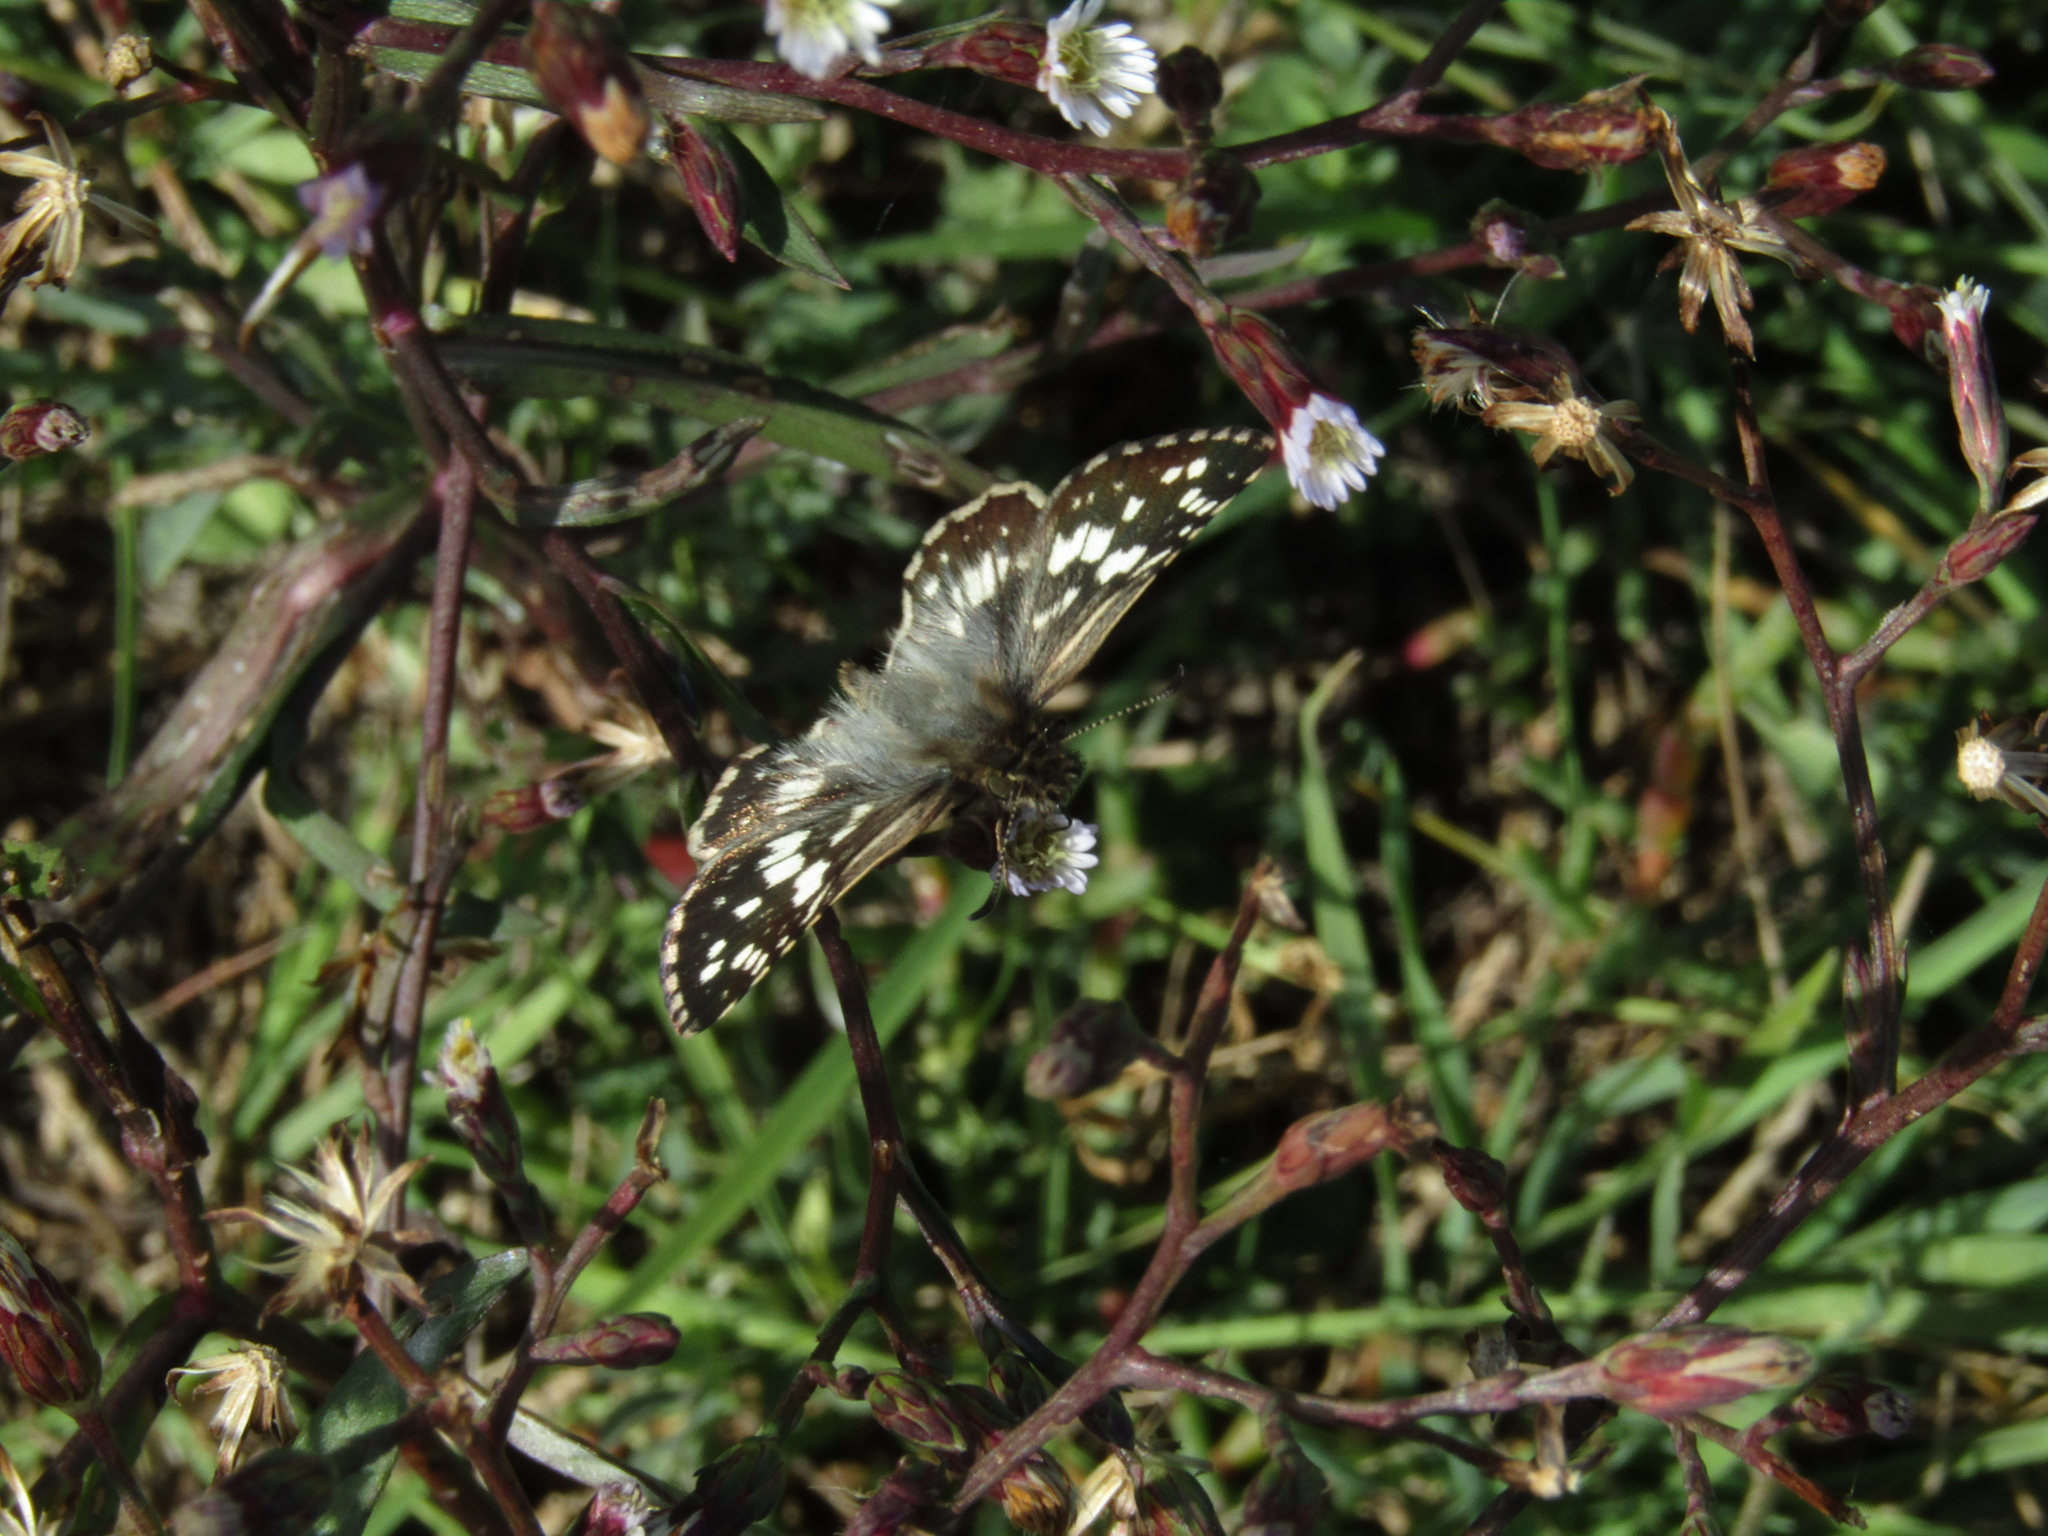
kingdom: Animalia
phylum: Arthropoda
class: Insecta
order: Lepidoptera
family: Hesperiidae
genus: Burnsius
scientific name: Burnsius orcynoides
